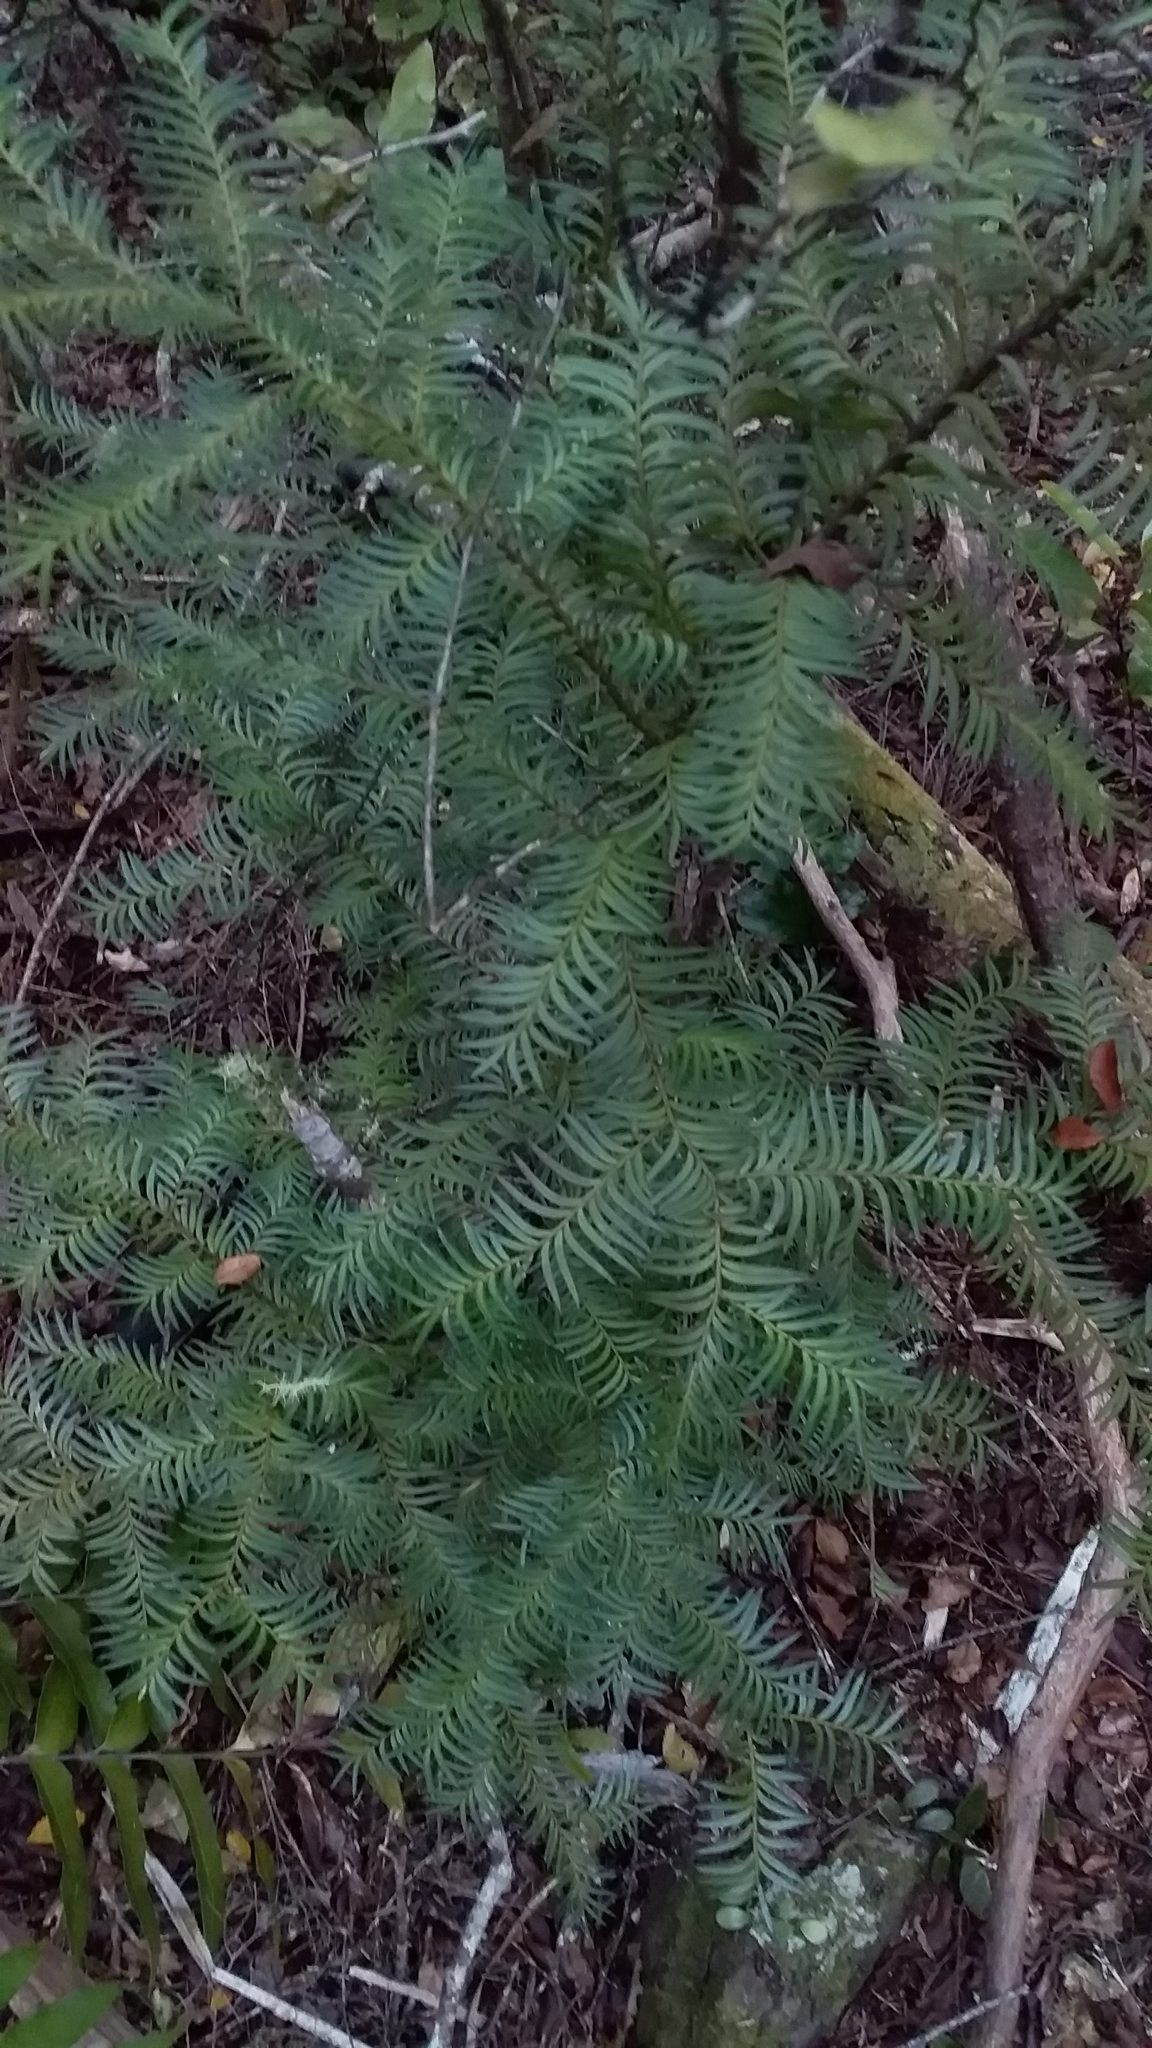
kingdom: Plantae
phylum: Tracheophyta
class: Pinopsida
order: Pinales
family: Podocarpaceae
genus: Prumnopitys
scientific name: Prumnopitys ferruginea
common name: Brown pine
